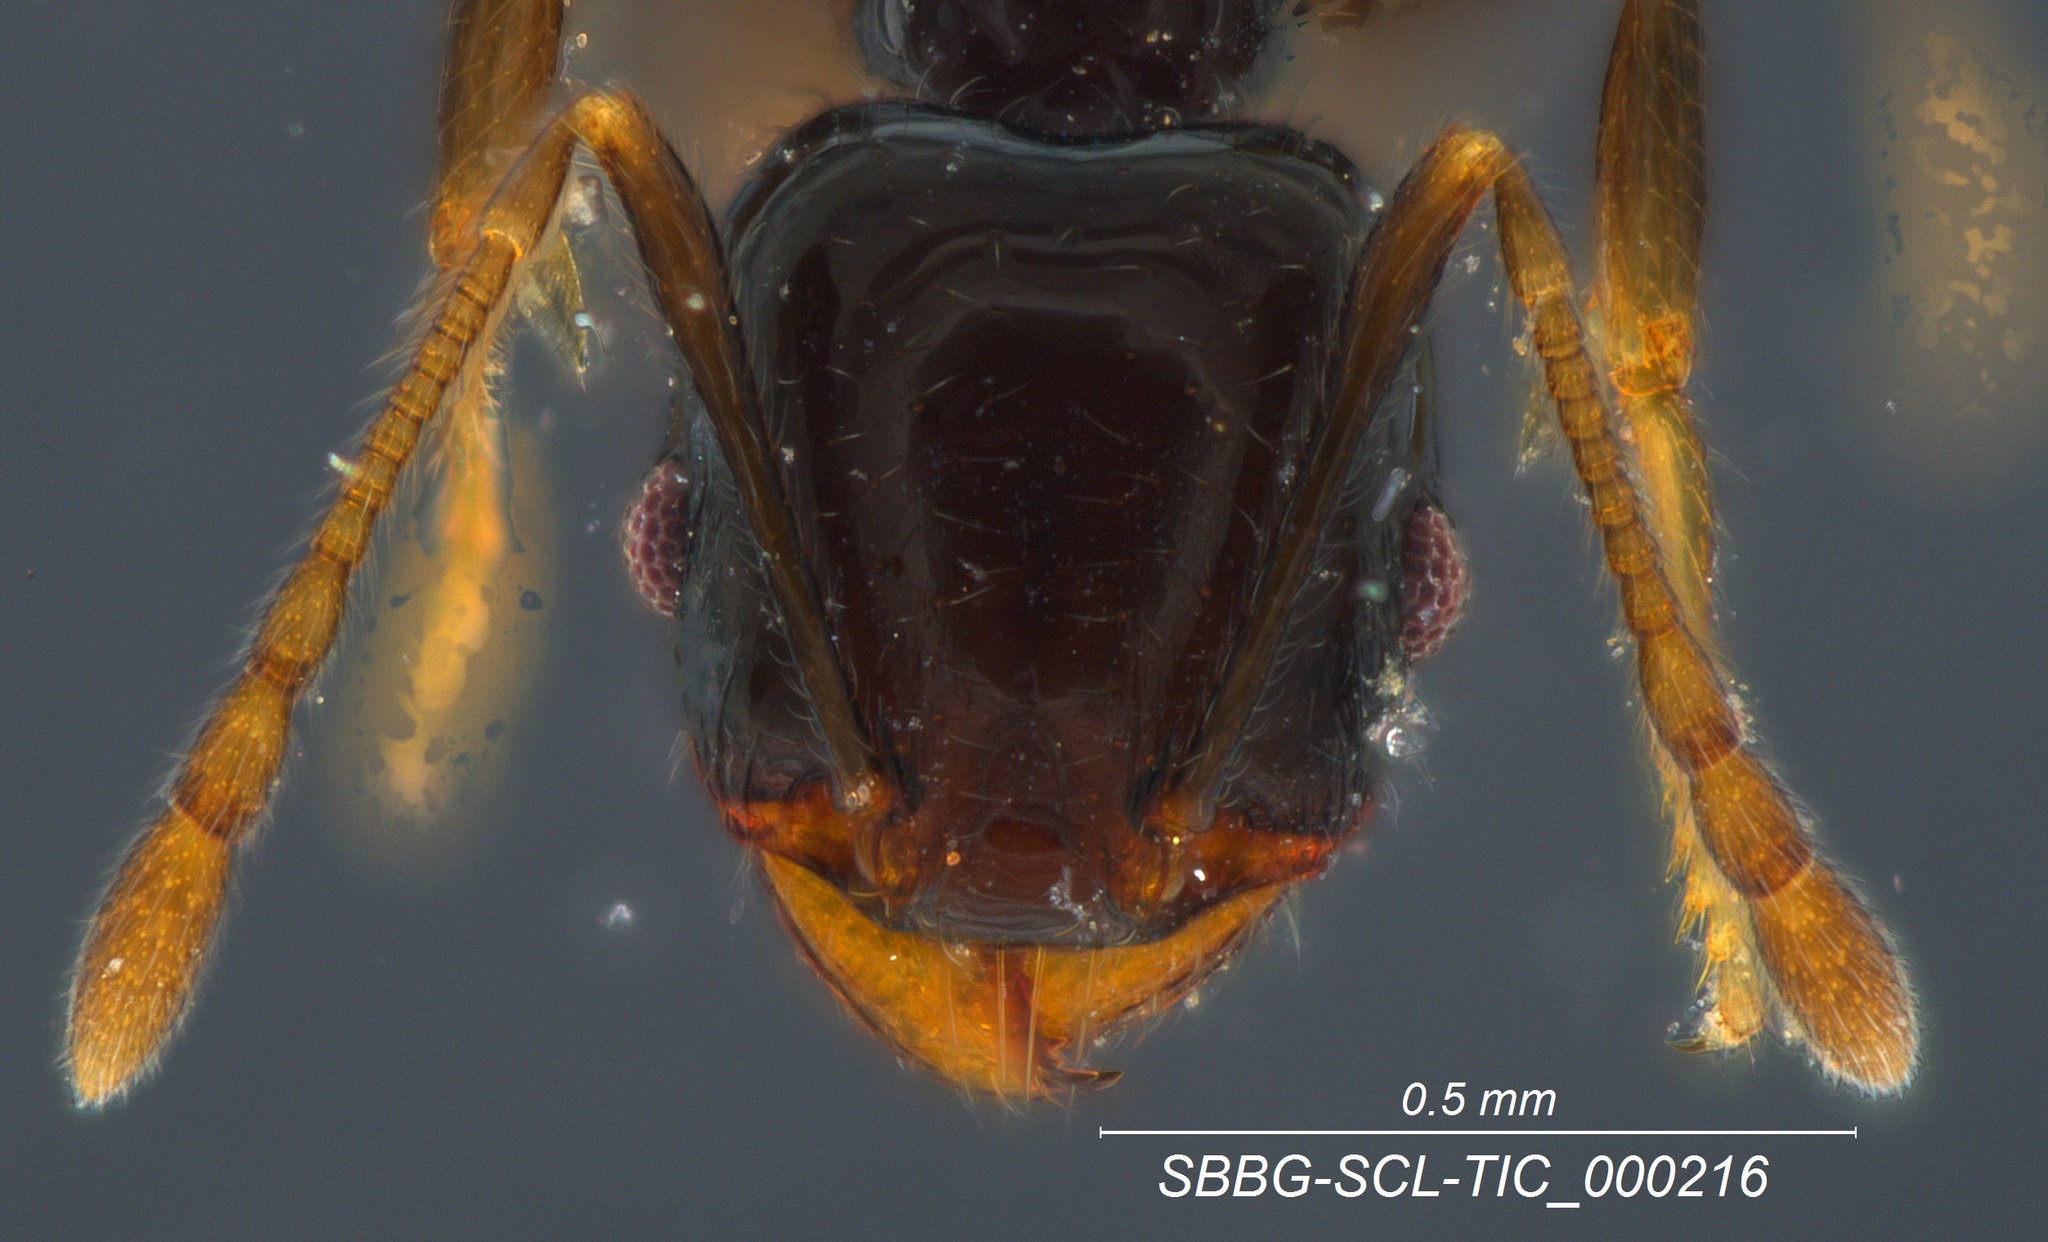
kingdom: Animalia
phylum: Arthropoda
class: Insecta
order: Hymenoptera
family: Formicidae
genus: Pheidole
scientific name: Pheidole clementensis
